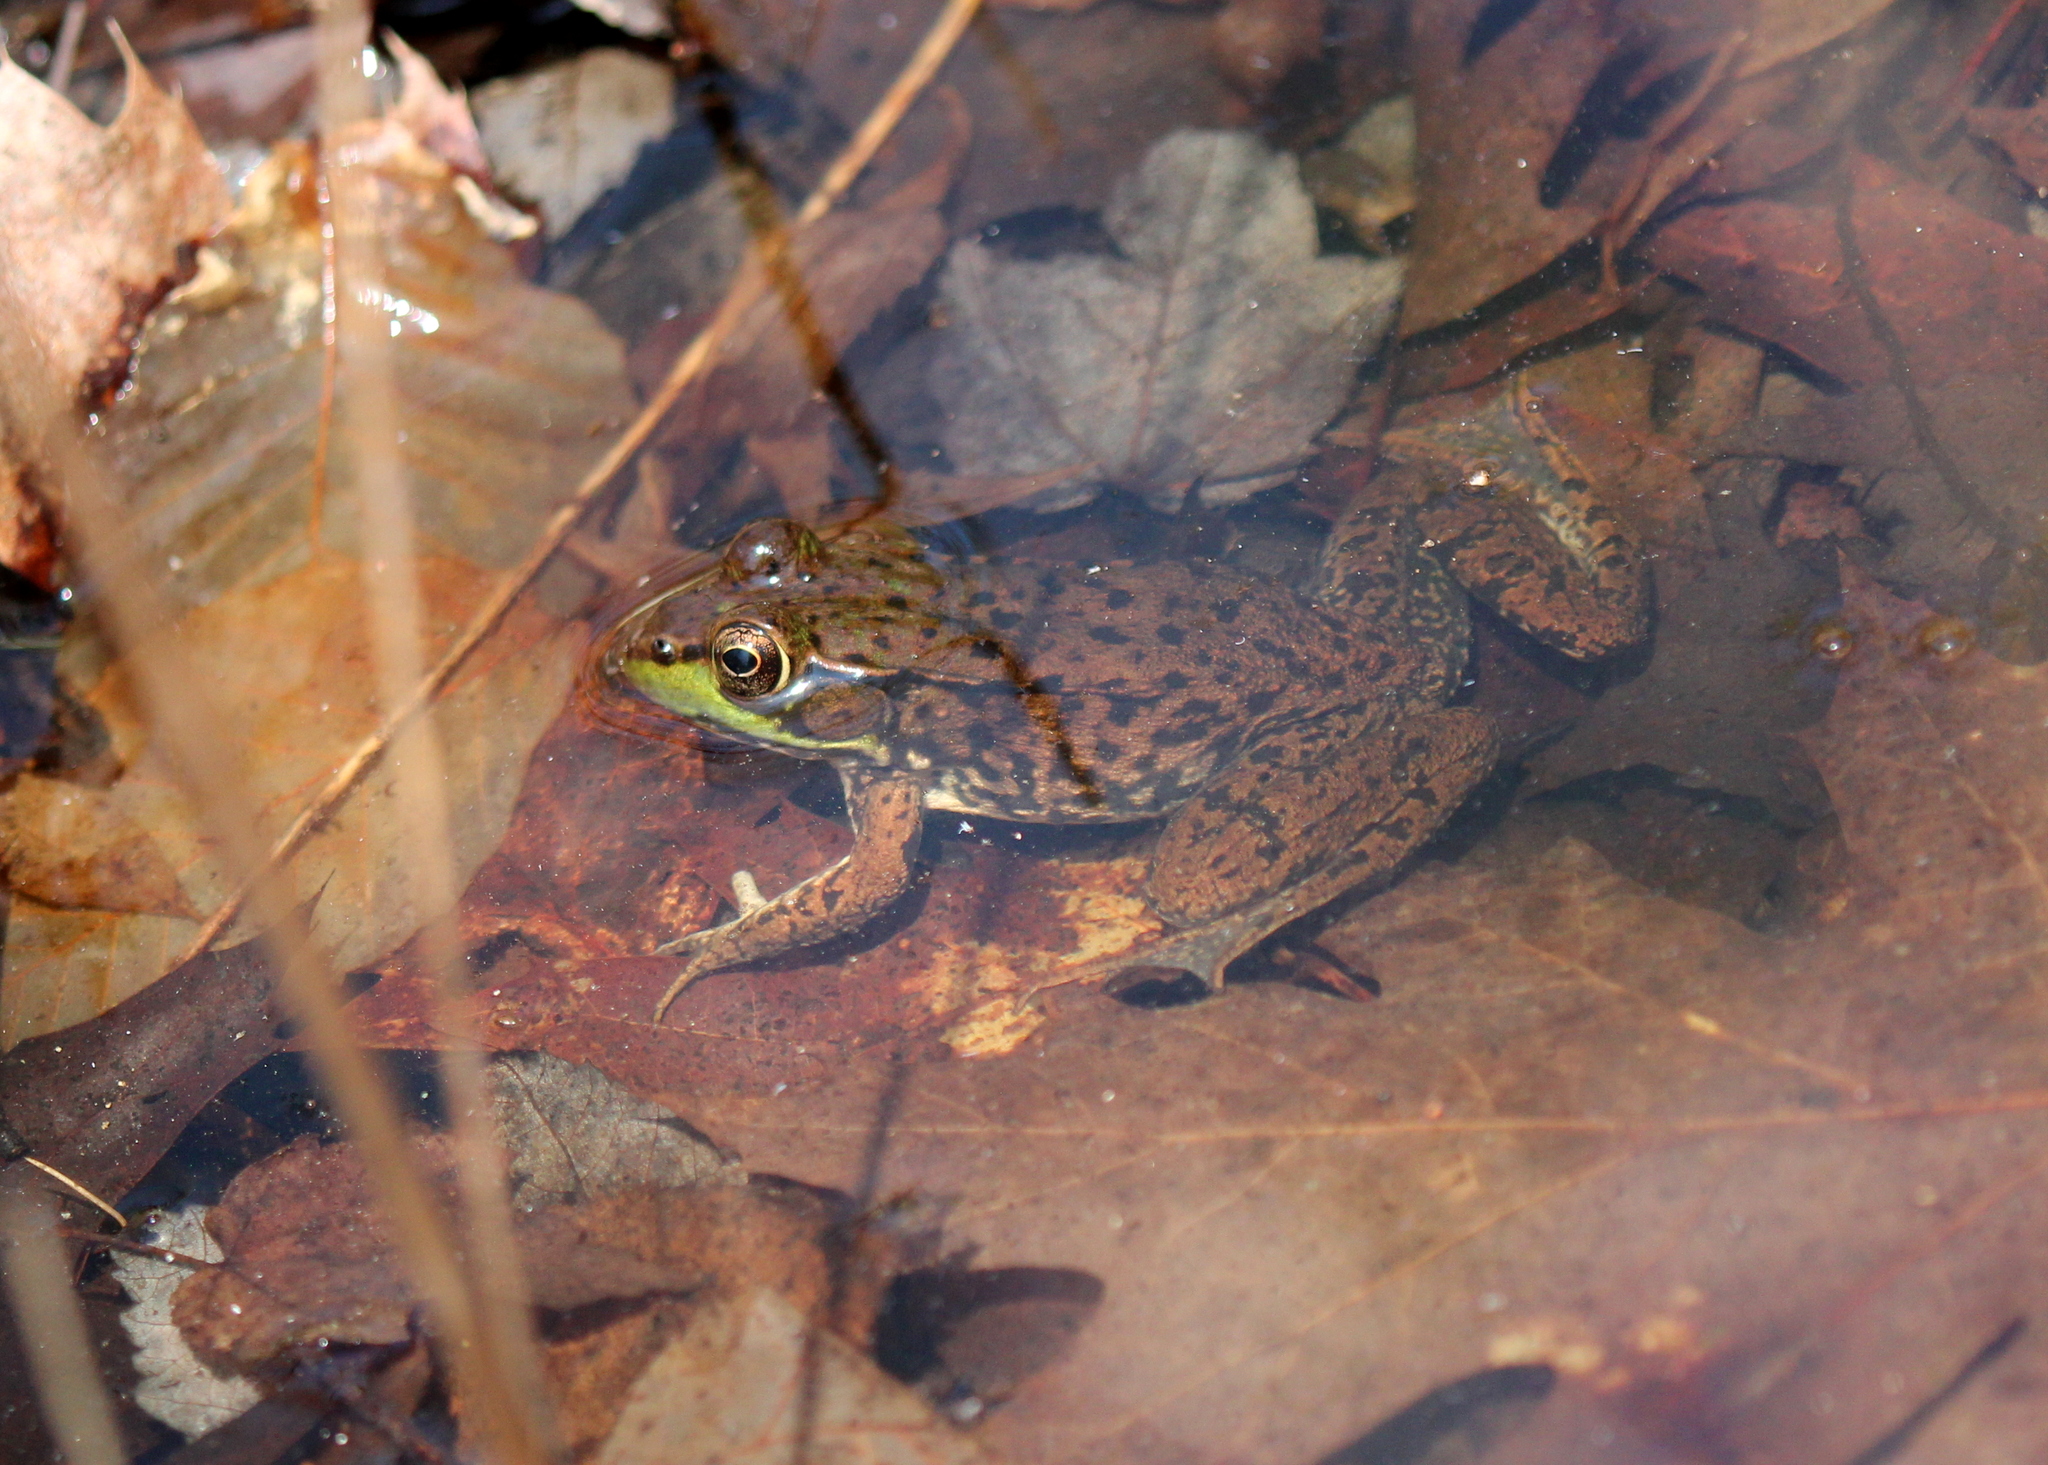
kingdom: Animalia
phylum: Chordata
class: Amphibia
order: Anura
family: Ranidae
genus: Lithobates
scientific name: Lithobates clamitans
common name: Green frog
